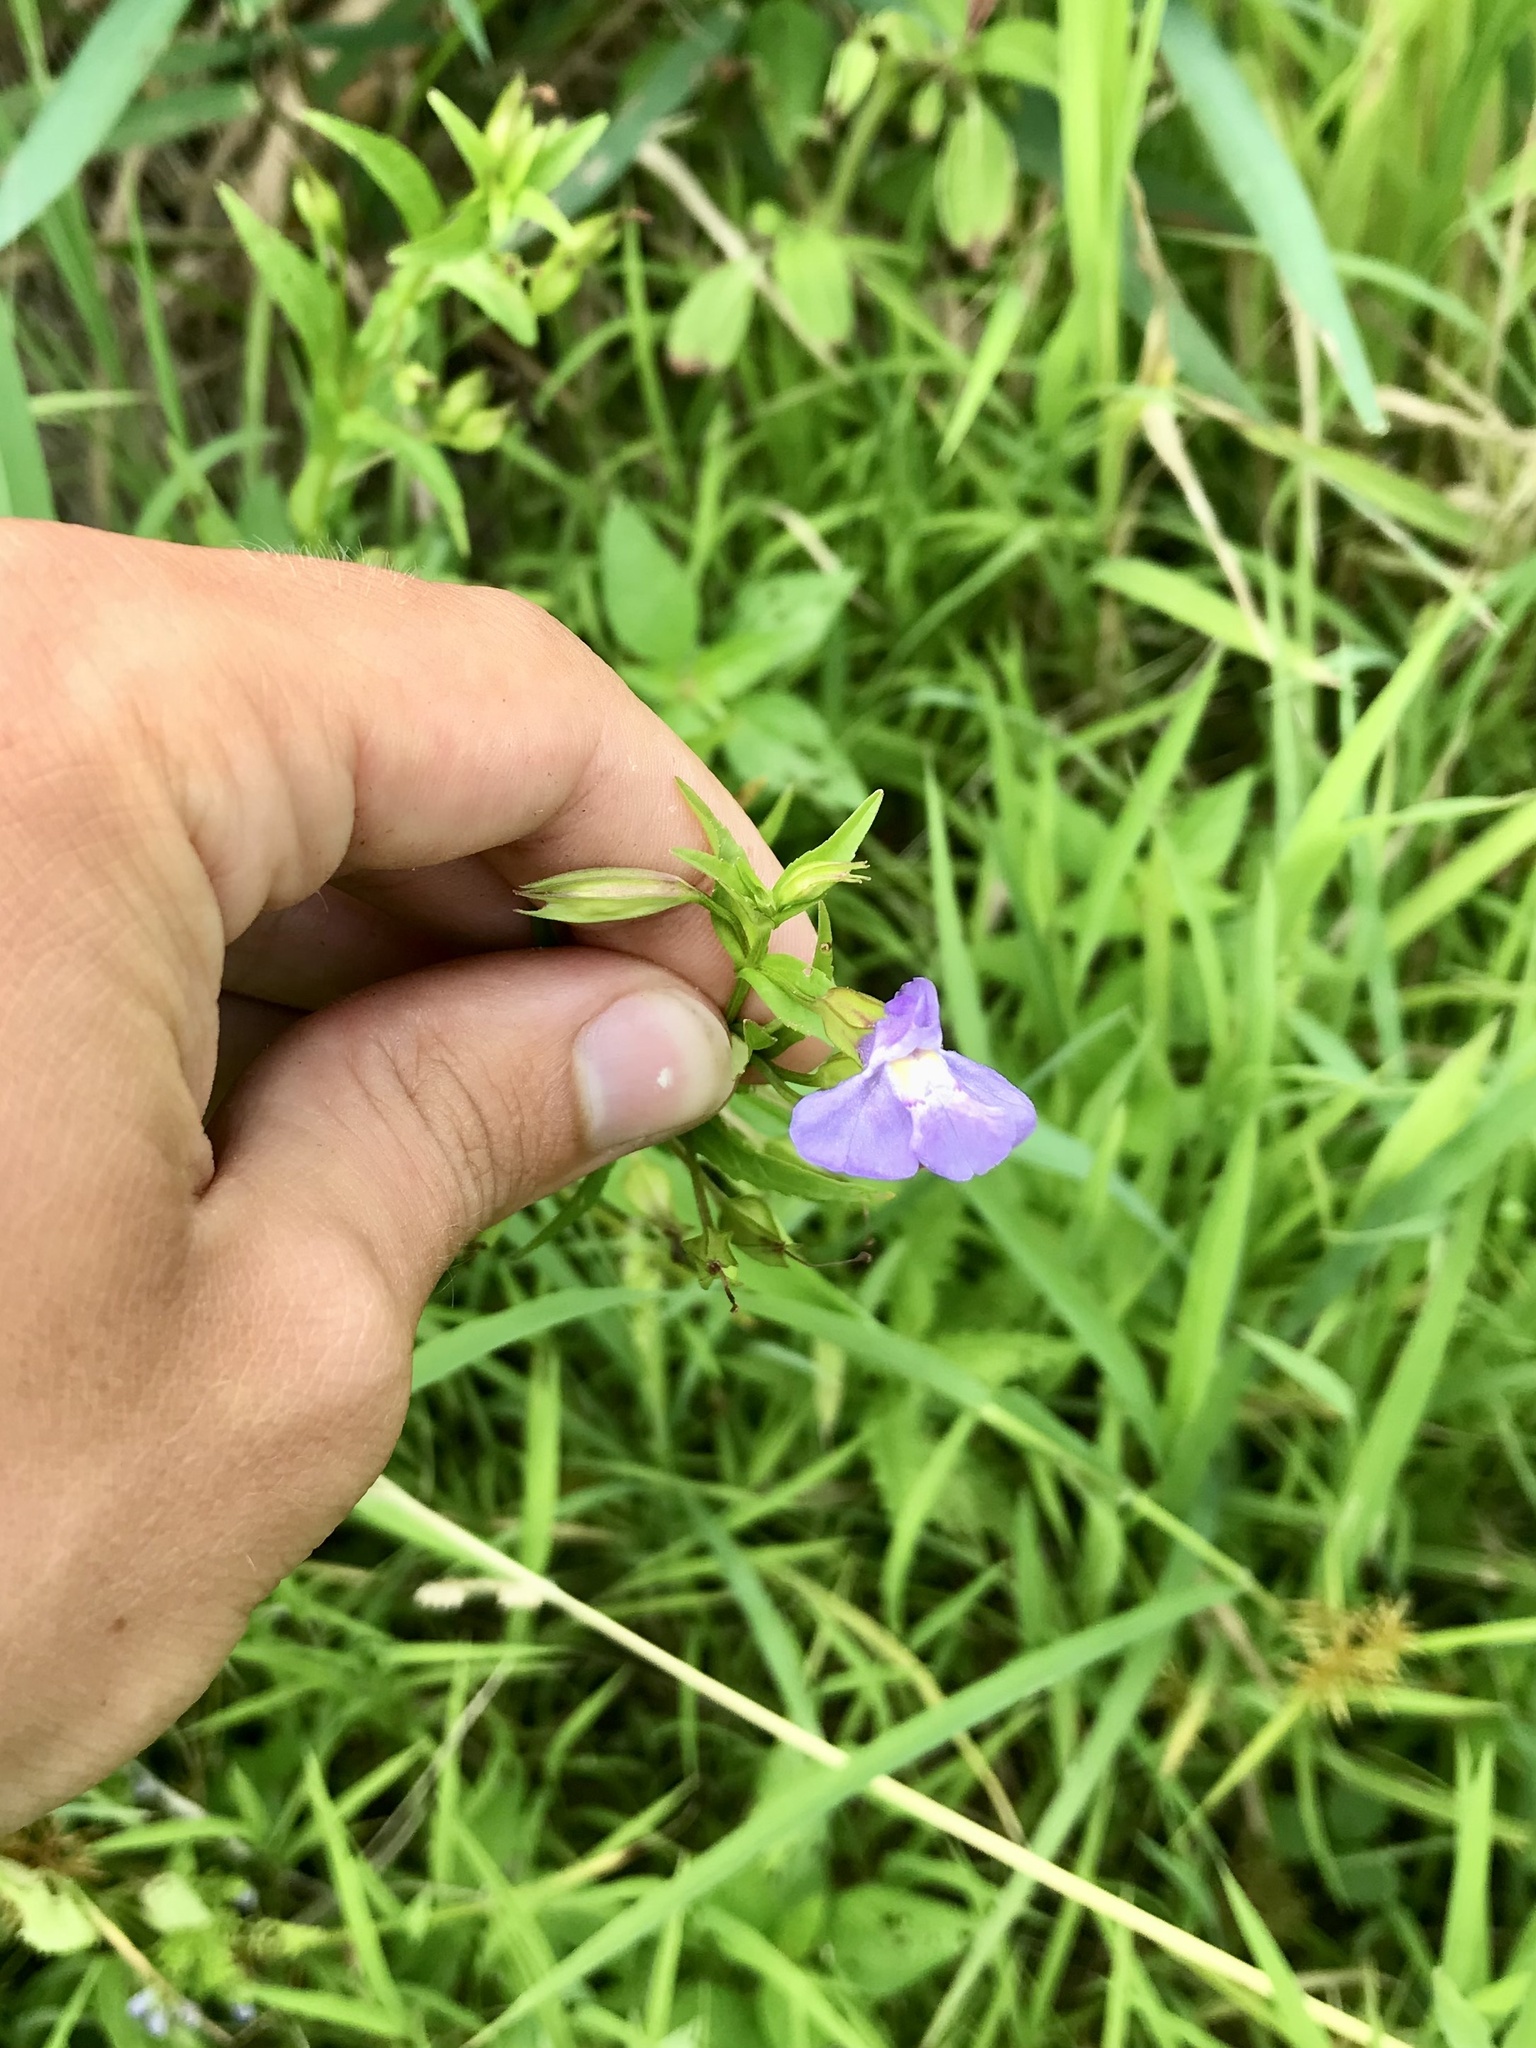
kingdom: Plantae
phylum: Tracheophyta
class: Magnoliopsida
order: Lamiales
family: Phrymaceae
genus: Mimulus
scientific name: Mimulus ringens
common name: Allegheny monkeyflower
